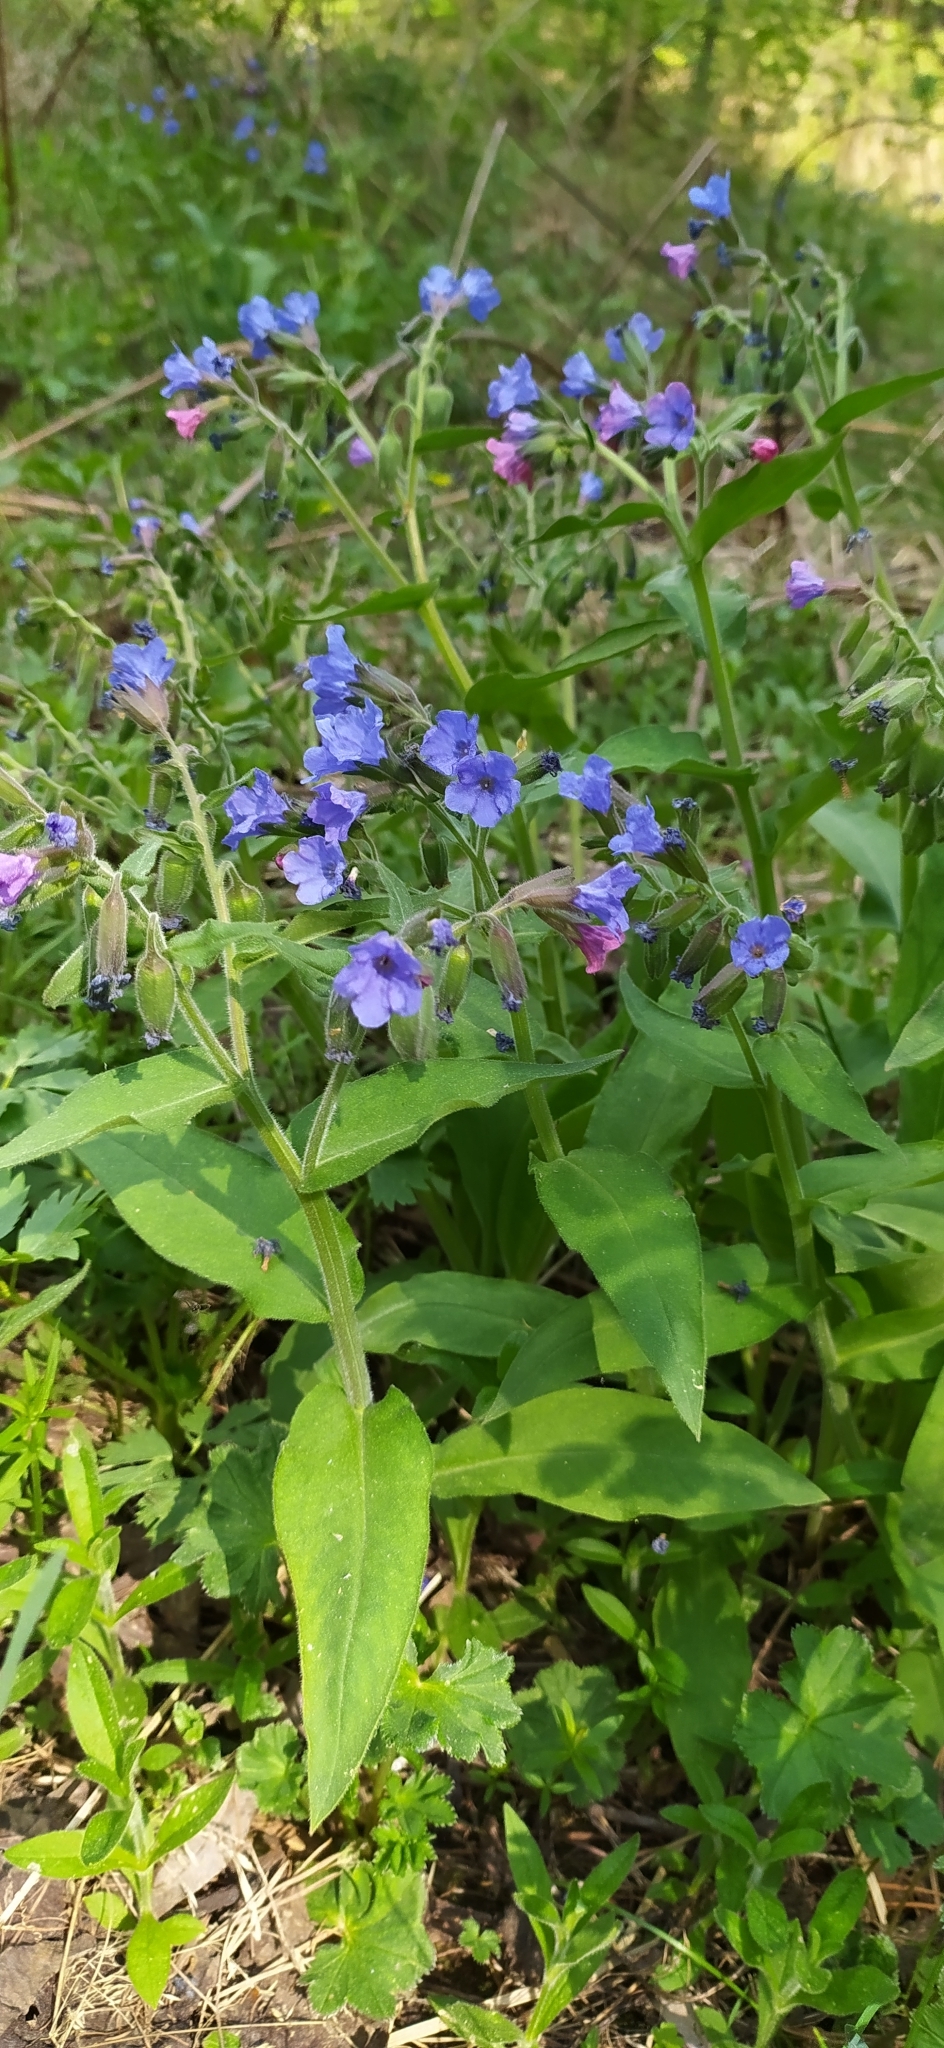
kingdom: Plantae
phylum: Tracheophyta
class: Magnoliopsida
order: Boraginales
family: Boraginaceae
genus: Pulmonaria
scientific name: Pulmonaria mollis
